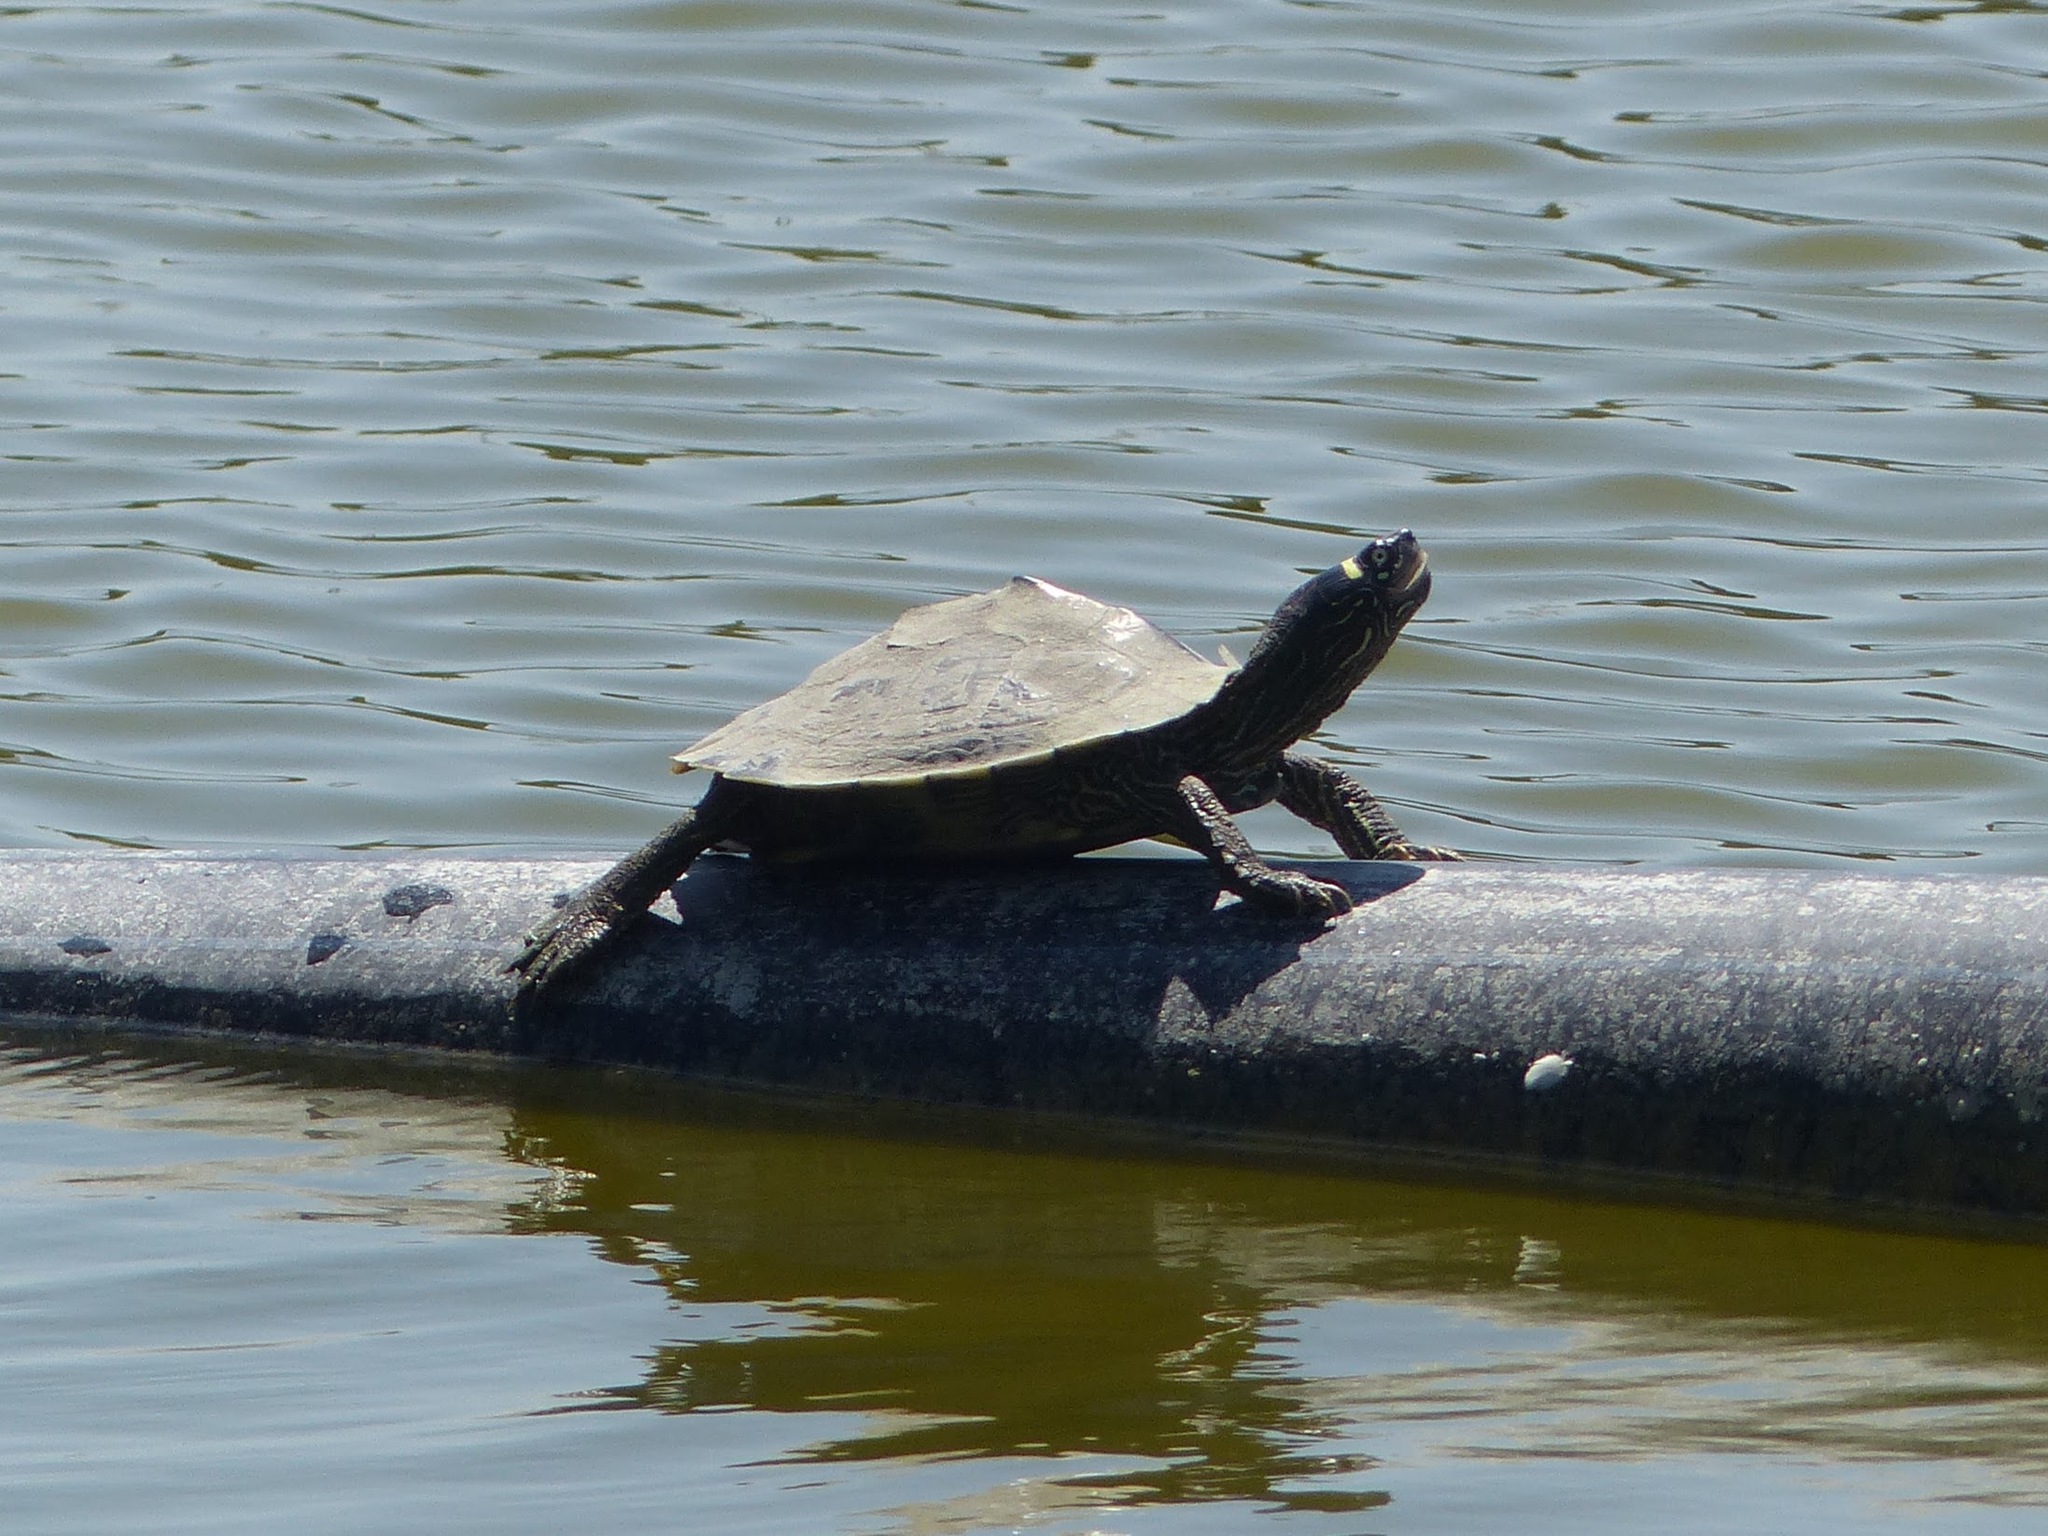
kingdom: Animalia
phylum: Chordata
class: Testudines
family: Emydidae
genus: Graptemys
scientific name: Graptemys ouachitensis
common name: Ouachita map turtle
